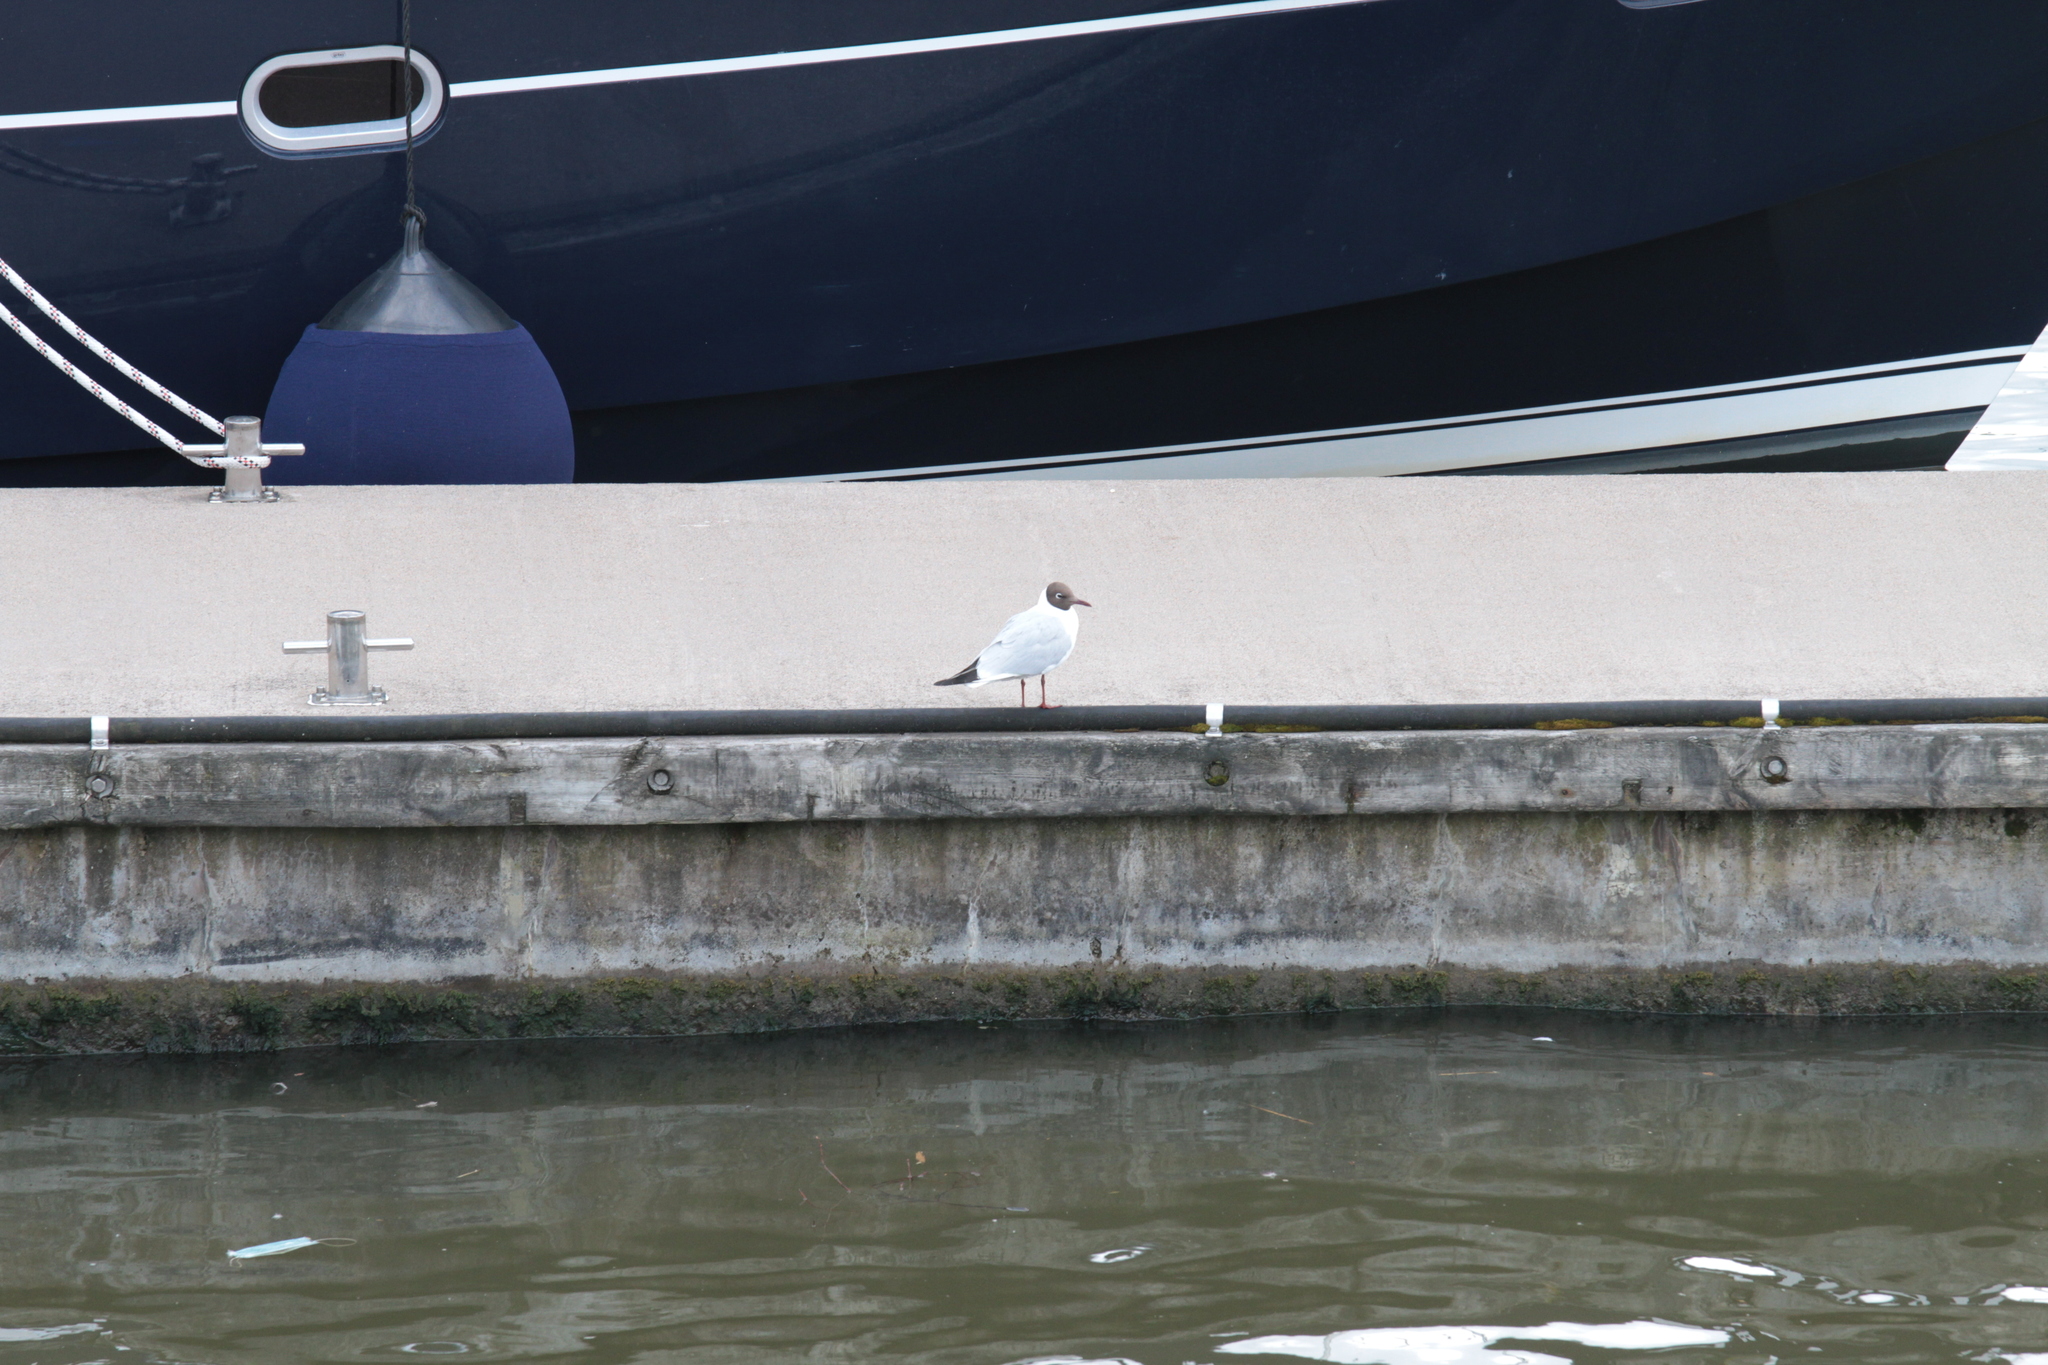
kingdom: Animalia
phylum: Chordata
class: Aves
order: Charadriiformes
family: Laridae
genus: Chroicocephalus
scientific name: Chroicocephalus ridibundus
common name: Black-headed gull
